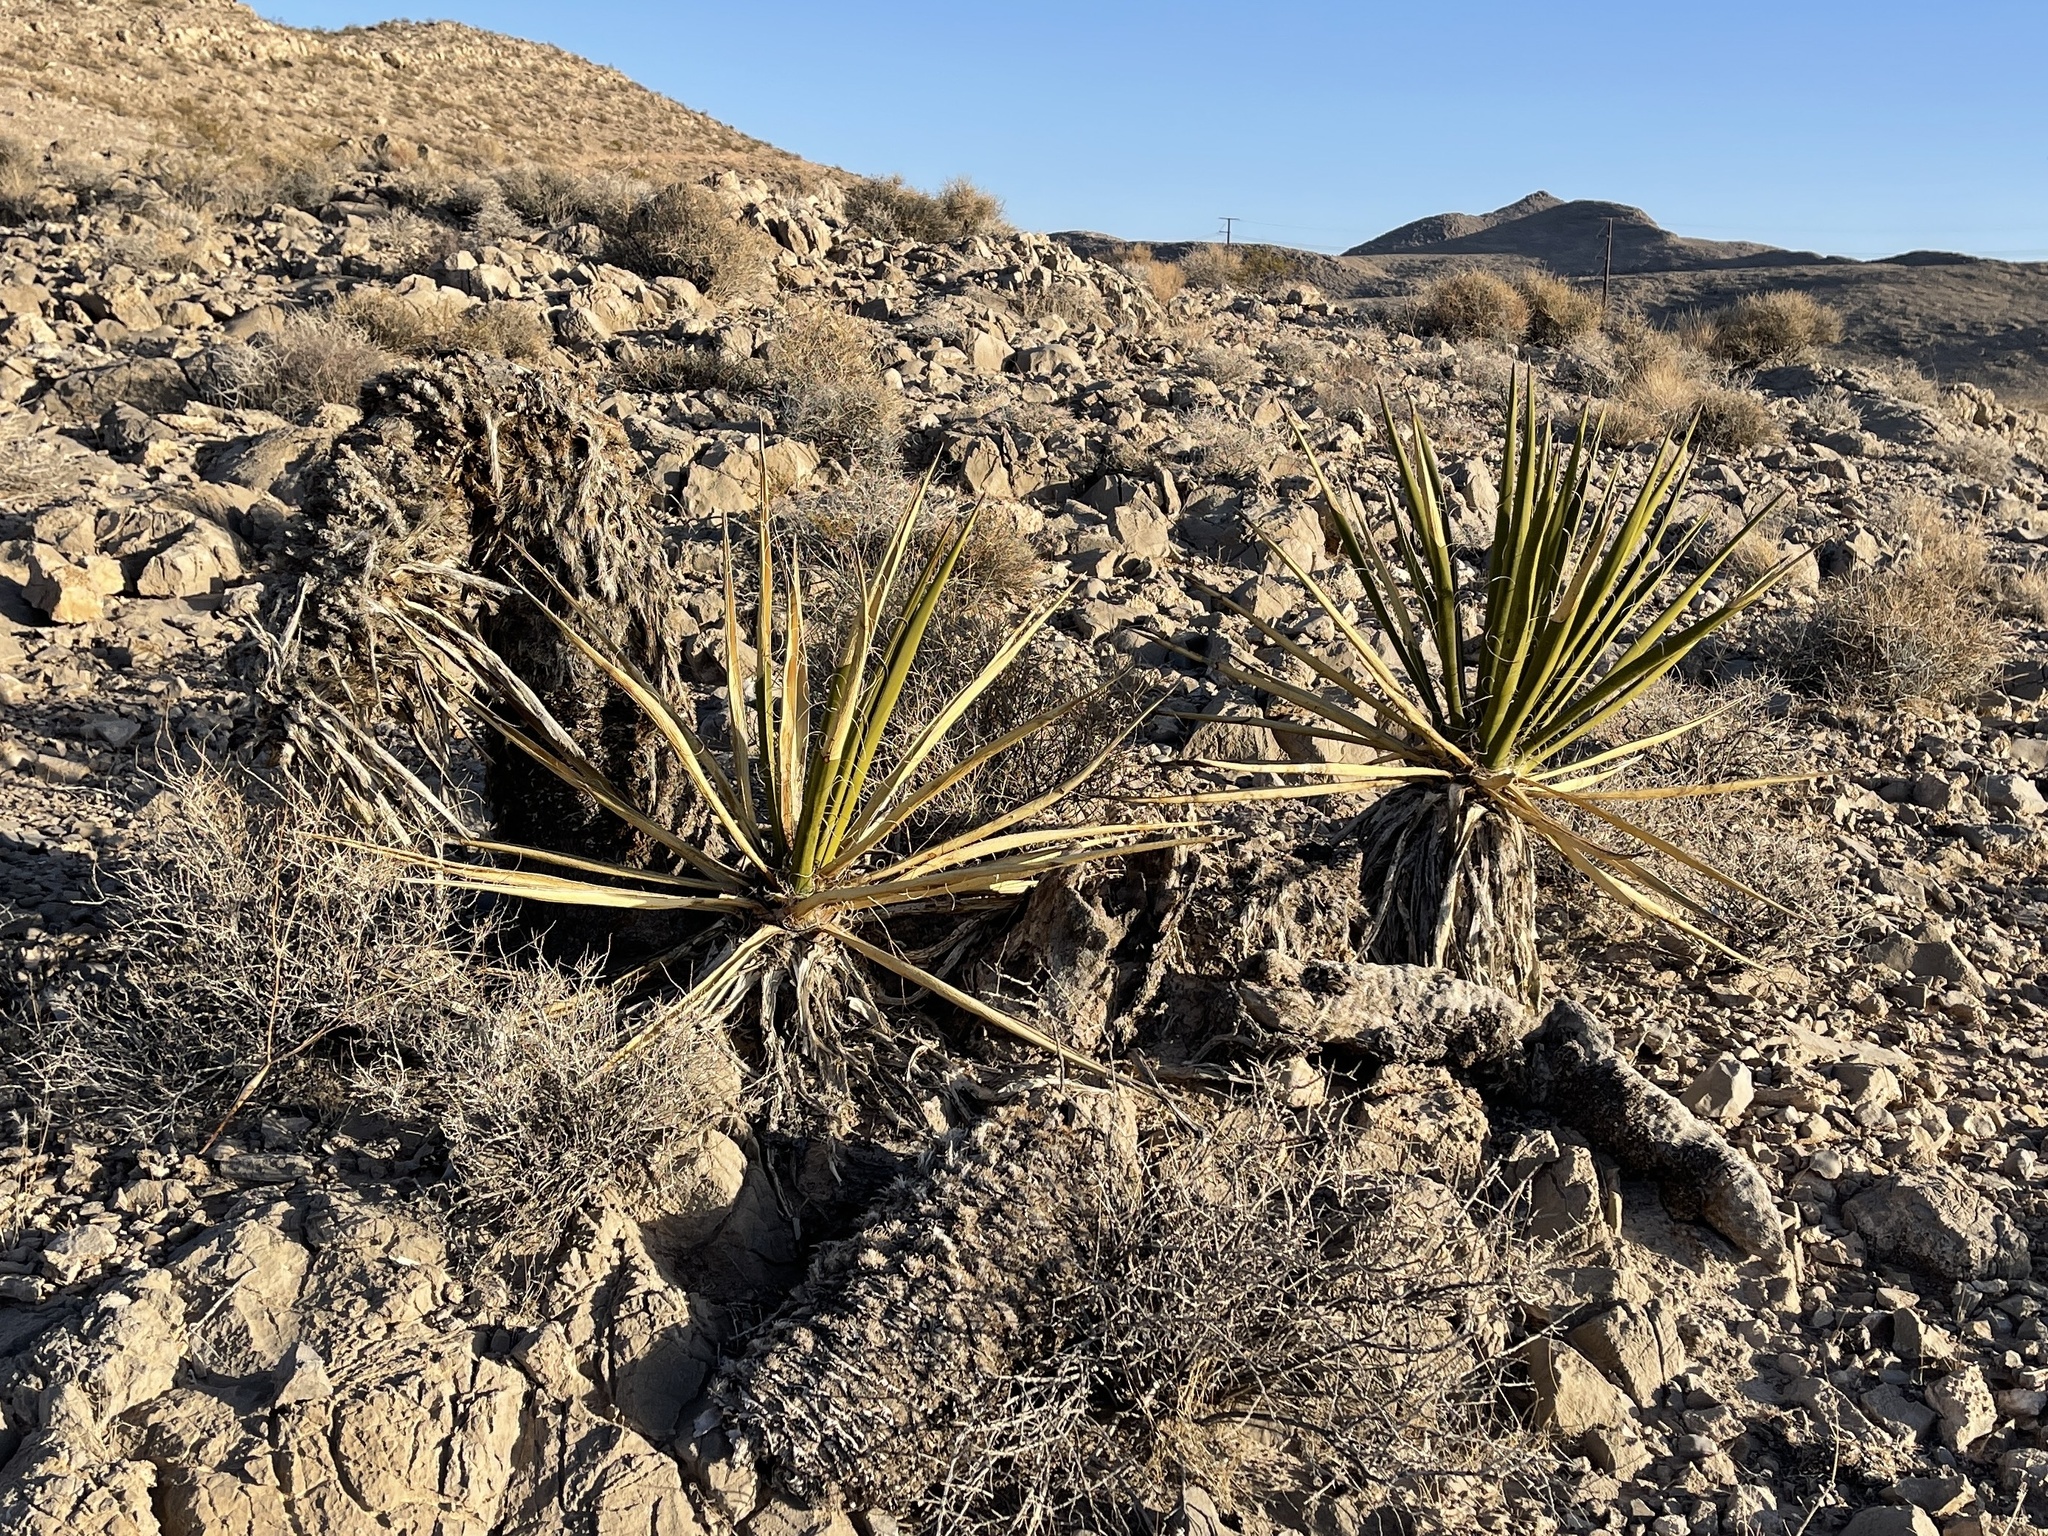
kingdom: Plantae
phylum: Tracheophyta
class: Liliopsida
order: Asparagales
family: Asparagaceae
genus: Yucca
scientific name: Yucca schidigera
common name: Mojave yucca
